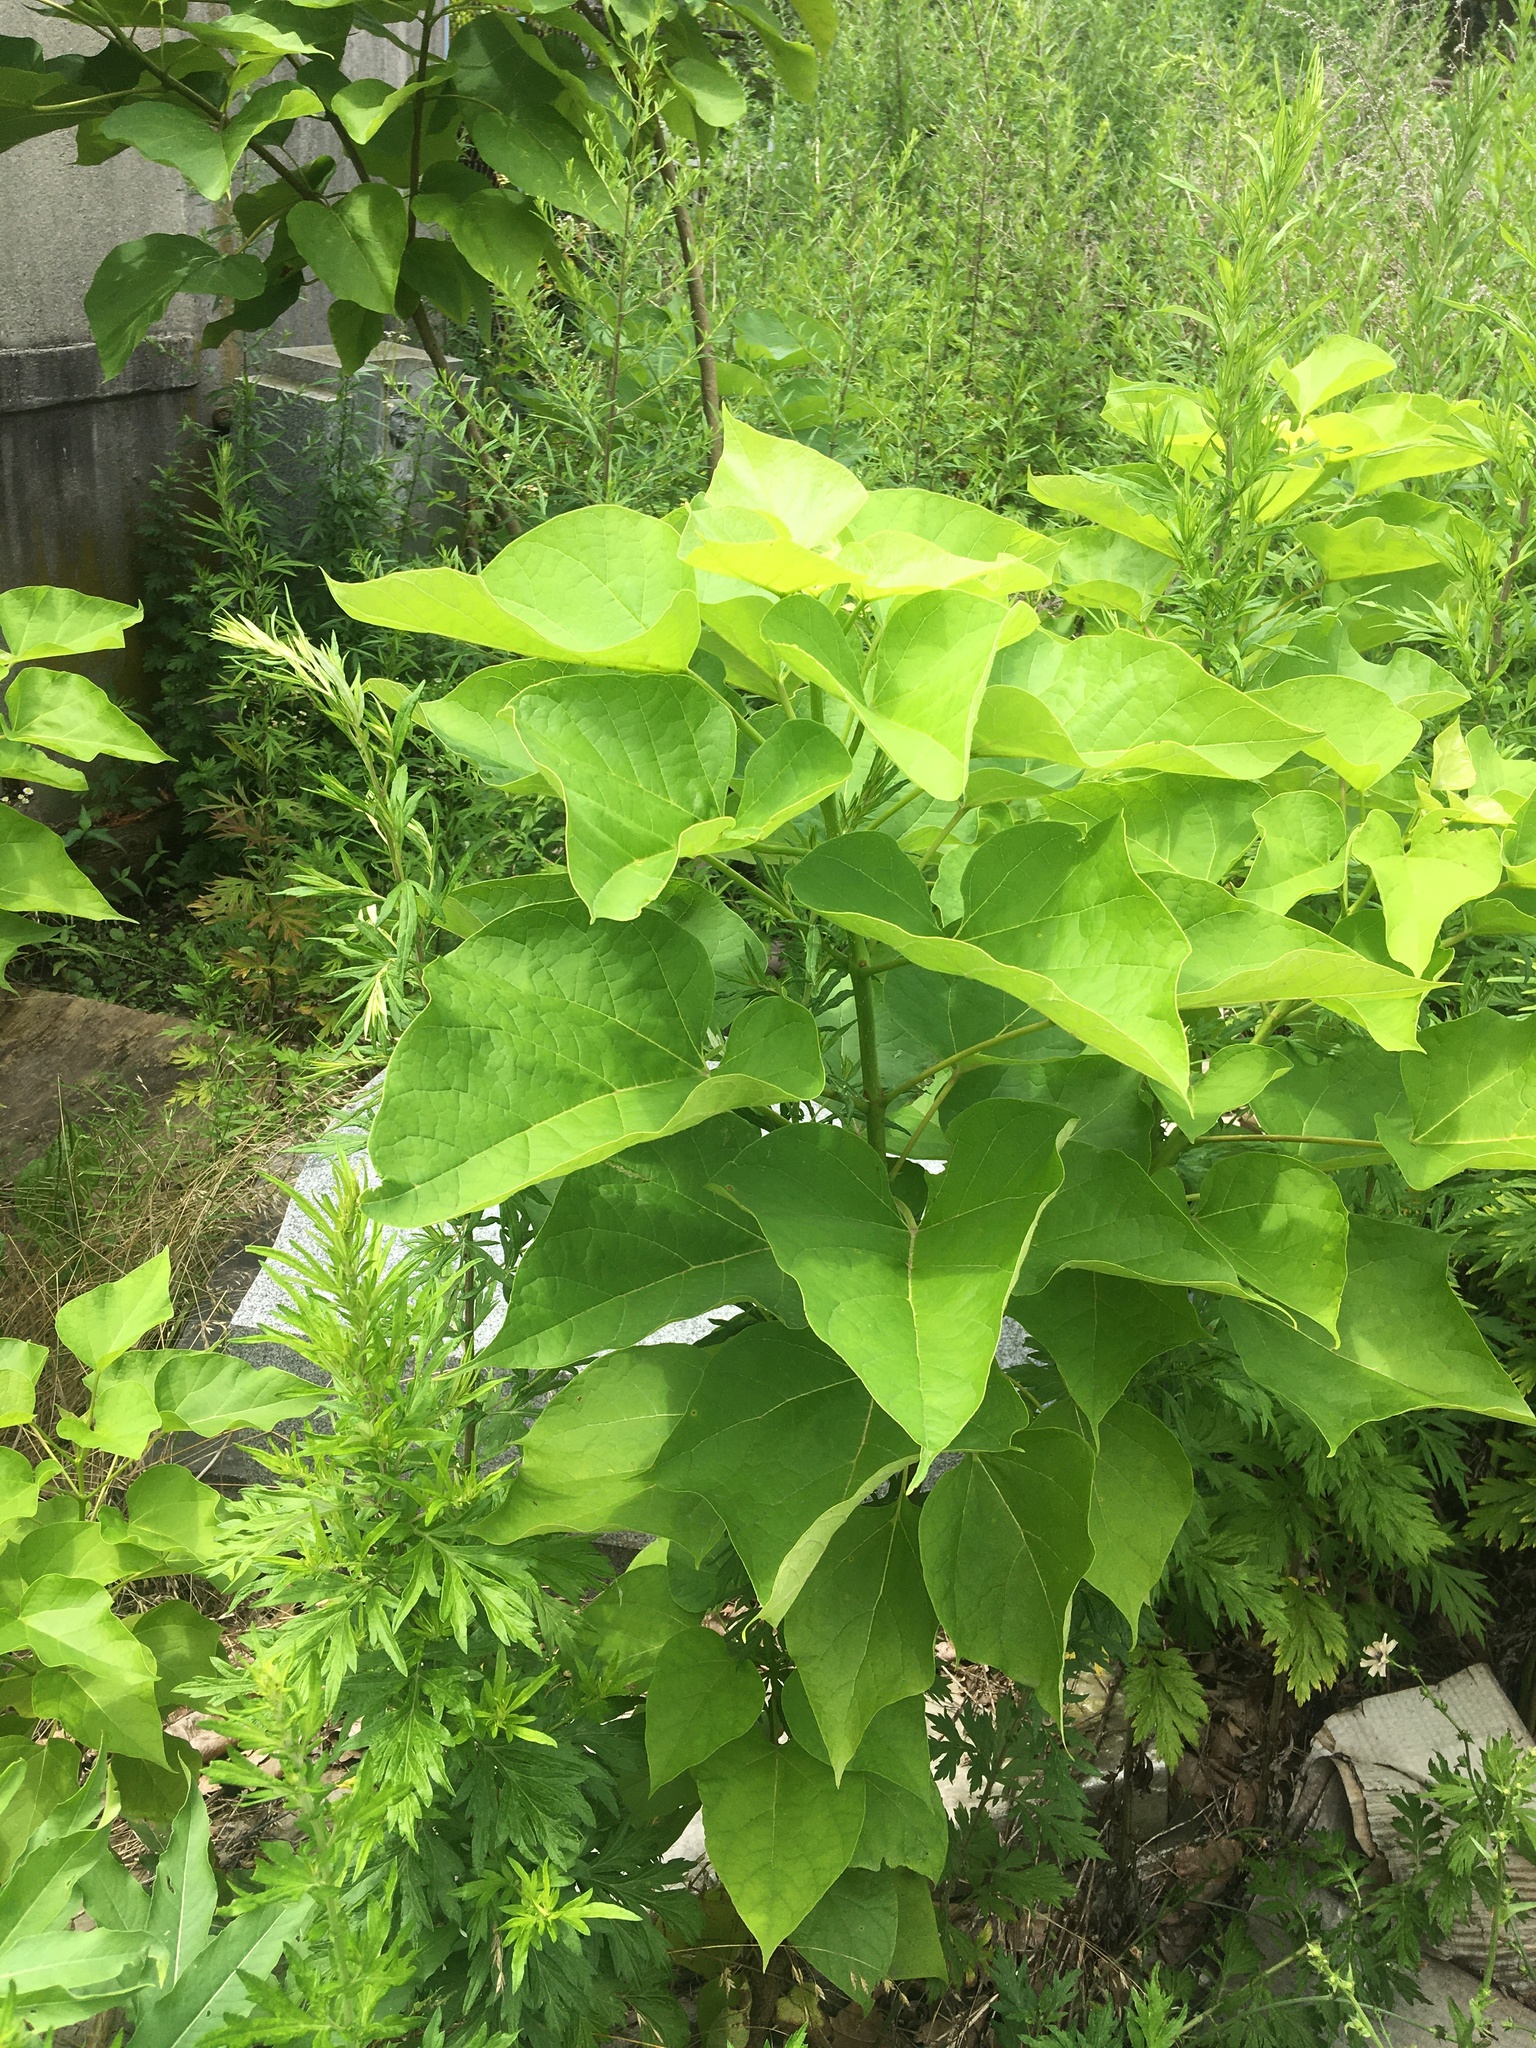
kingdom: Plantae
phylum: Tracheophyta
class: Magnoliopsida
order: Lamiales
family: Bignoniaceae
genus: Catalpa
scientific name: Catalpa speciosa
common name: Northern catalpa
